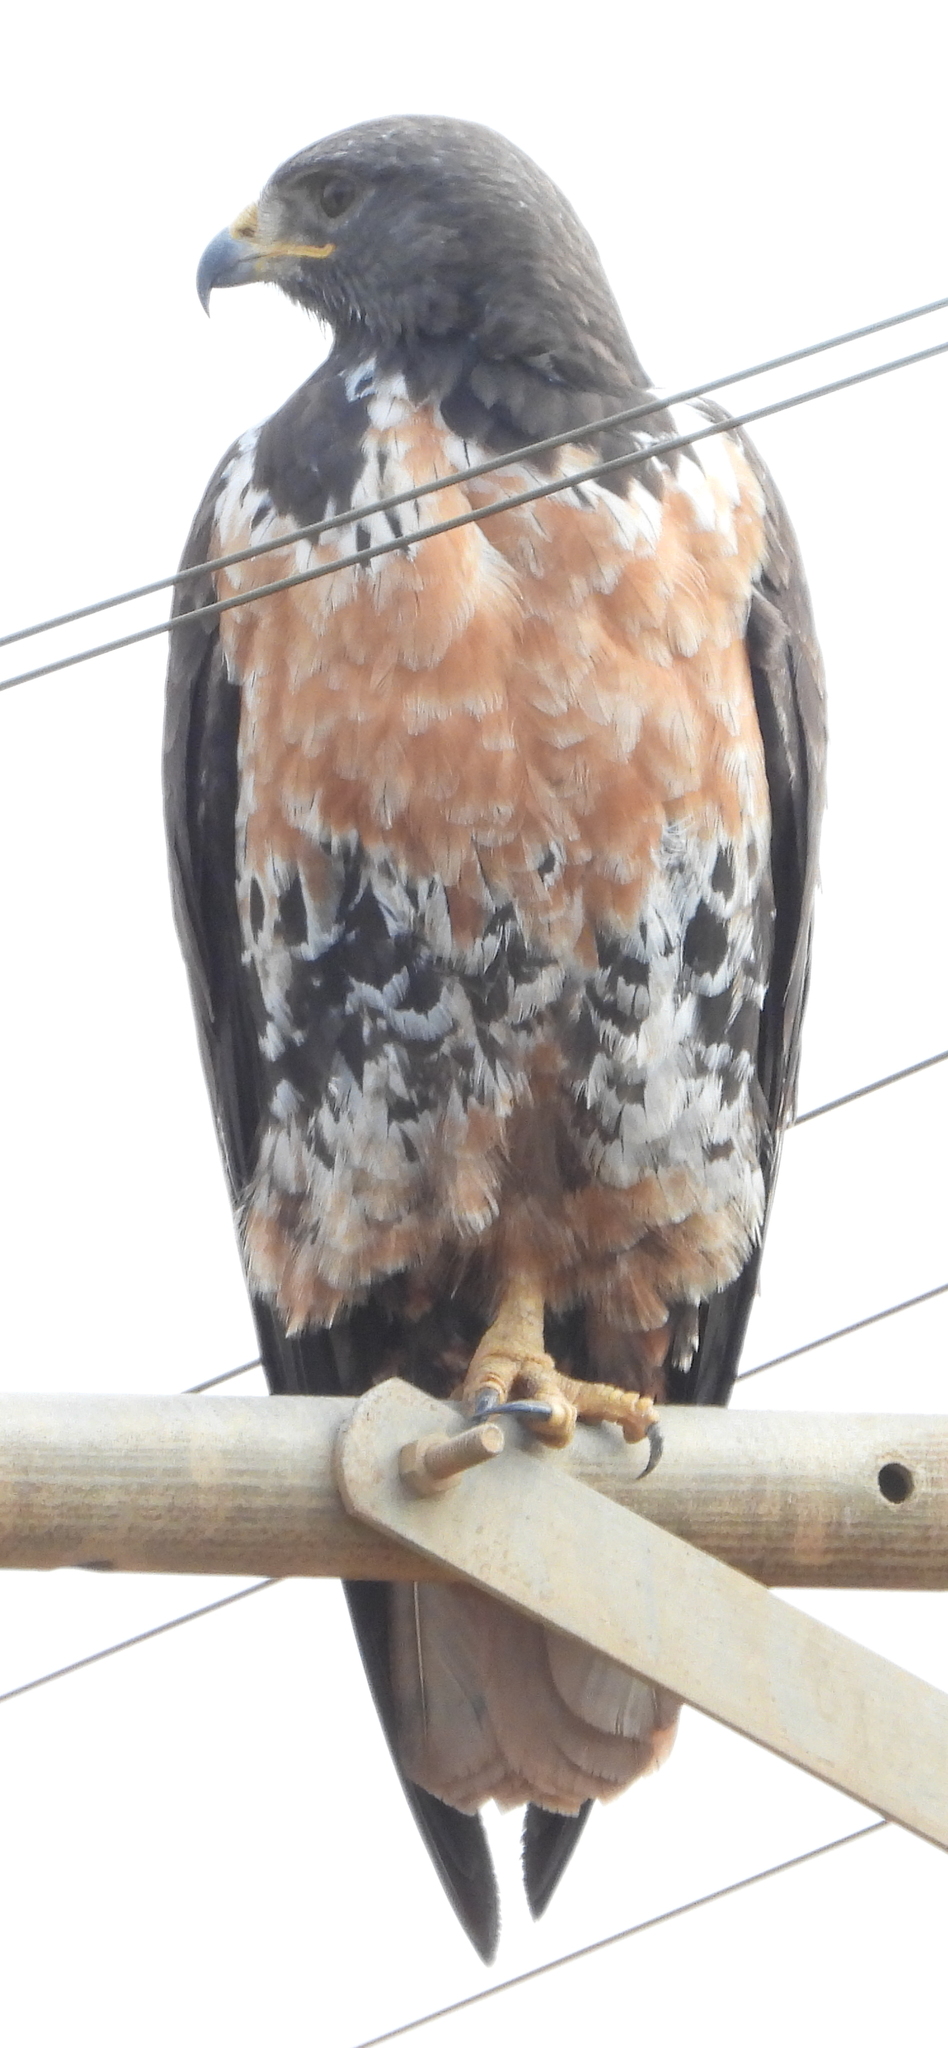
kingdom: Animalia
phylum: Chordata
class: Aves
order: Accipitriformes
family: Accipitridae
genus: Buteo
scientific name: Buteo rufofuscus
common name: Jackal buzzard
